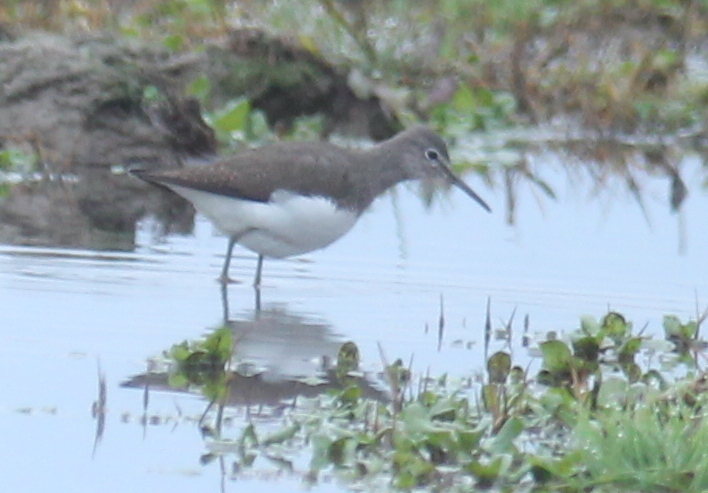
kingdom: Animalia
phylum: Chordata
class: Aves
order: Charadriiformes
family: Scolopacidae
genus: Tringa
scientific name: Tringa ochropus
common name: Green sandpiper
